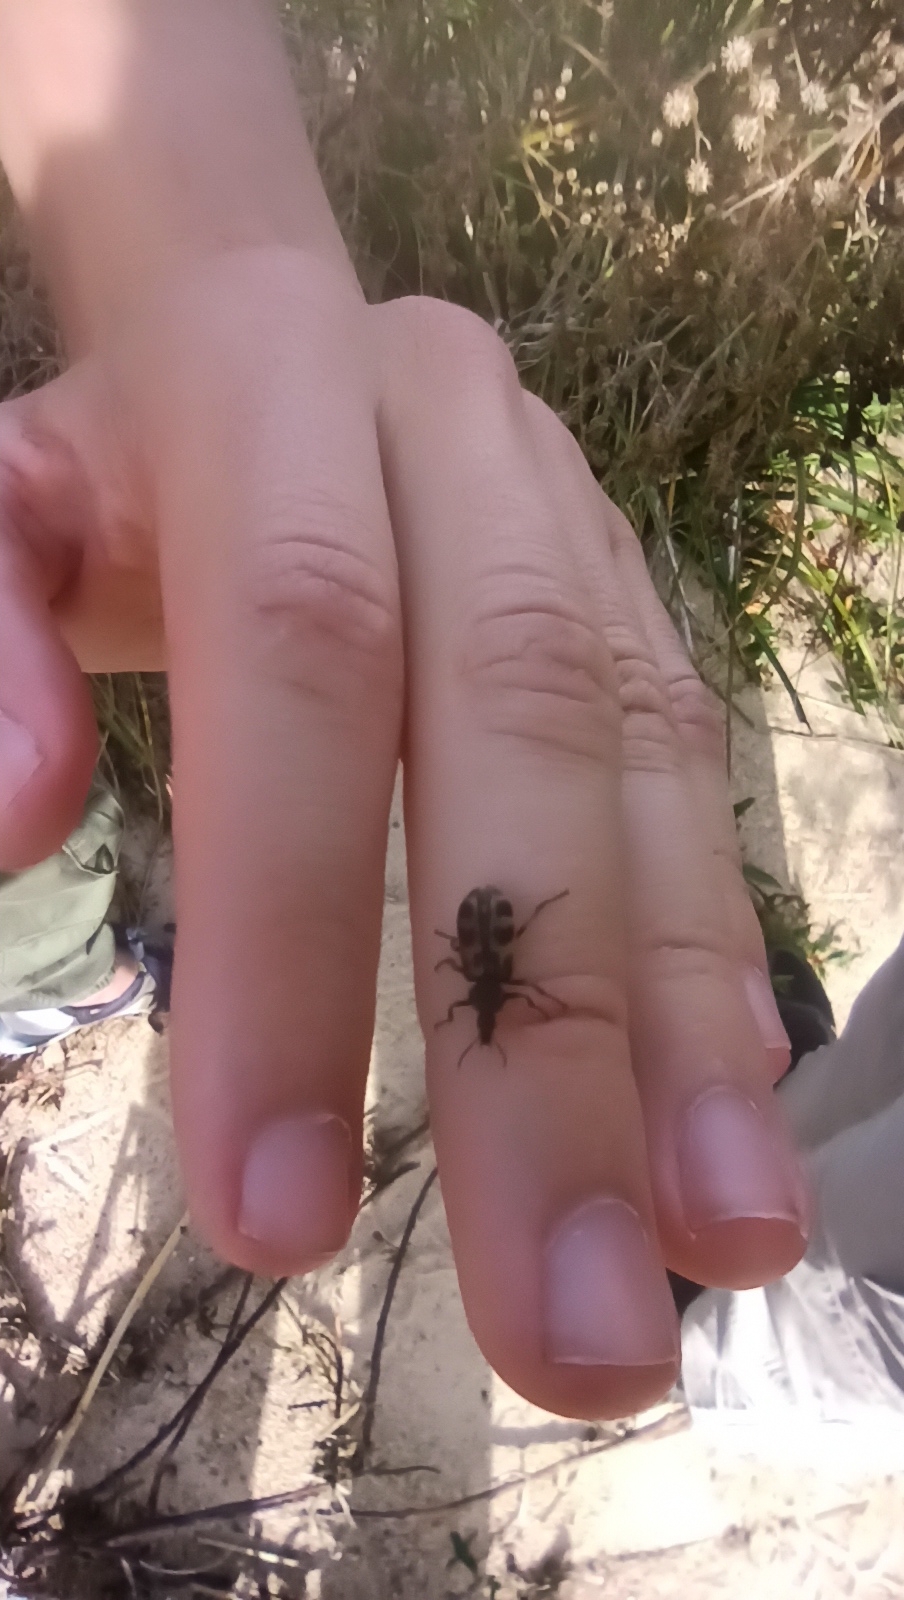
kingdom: Animalia
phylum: Arthropoda
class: Insecta
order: Coleoptera
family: Melyridae
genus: Astylus
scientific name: Astylus atromaculatus
